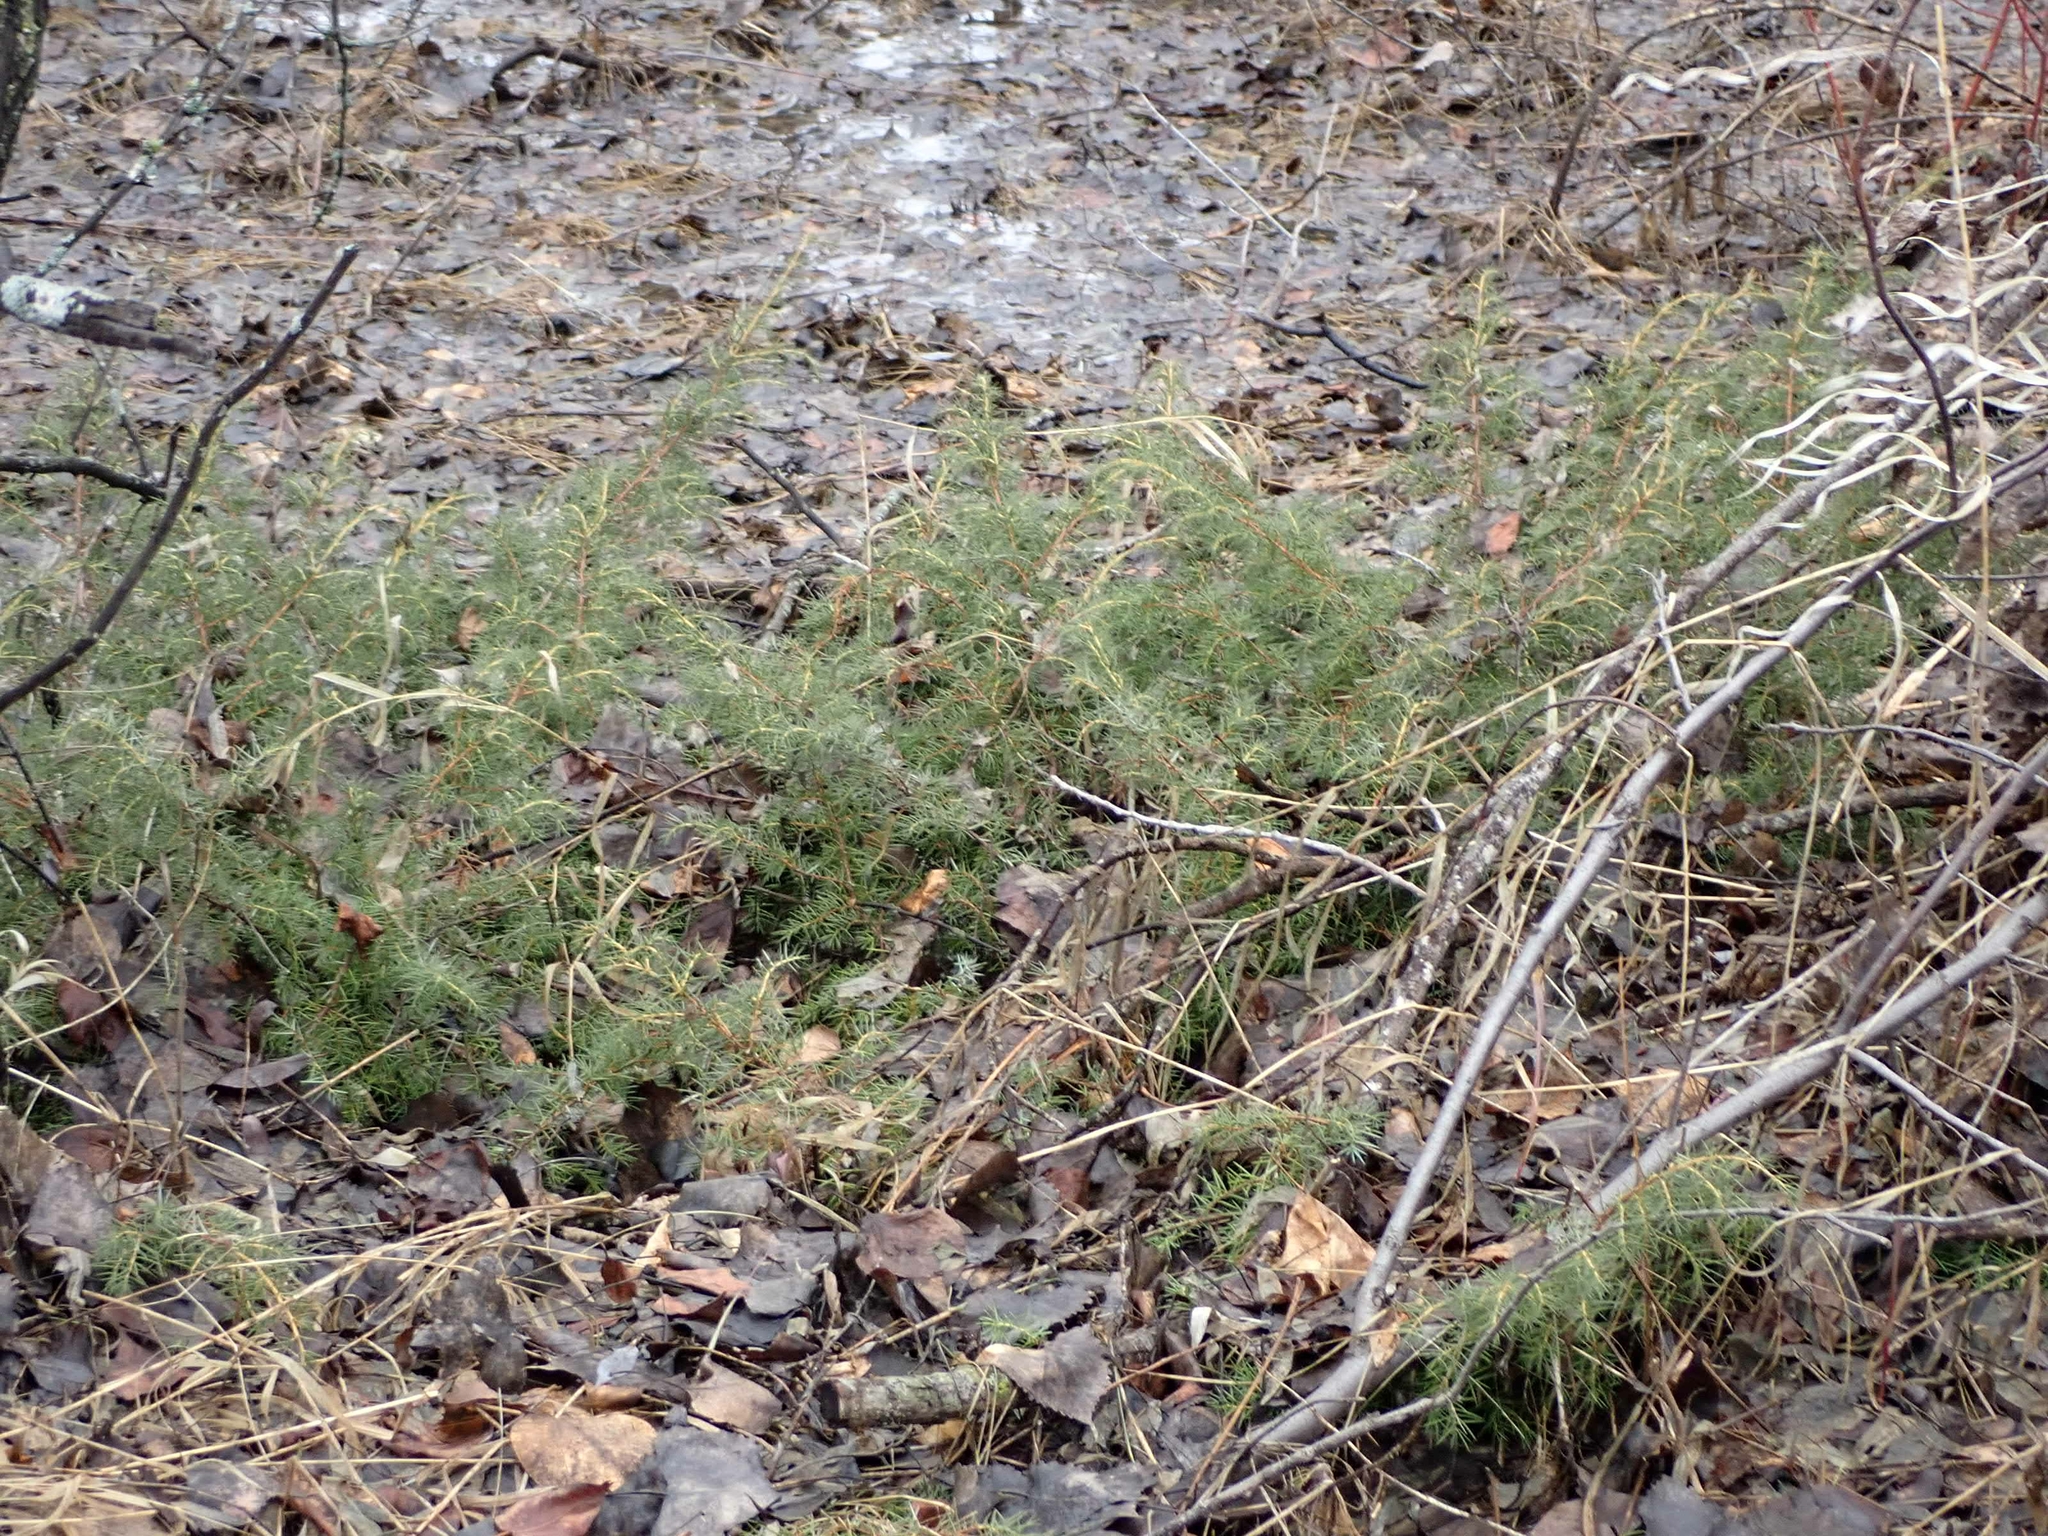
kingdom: Plantae
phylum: Tracheophyta
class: Pinopsida
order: Pinales
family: Cupressaceae
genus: Juniperus
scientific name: Juniperus communis
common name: Common juniper
